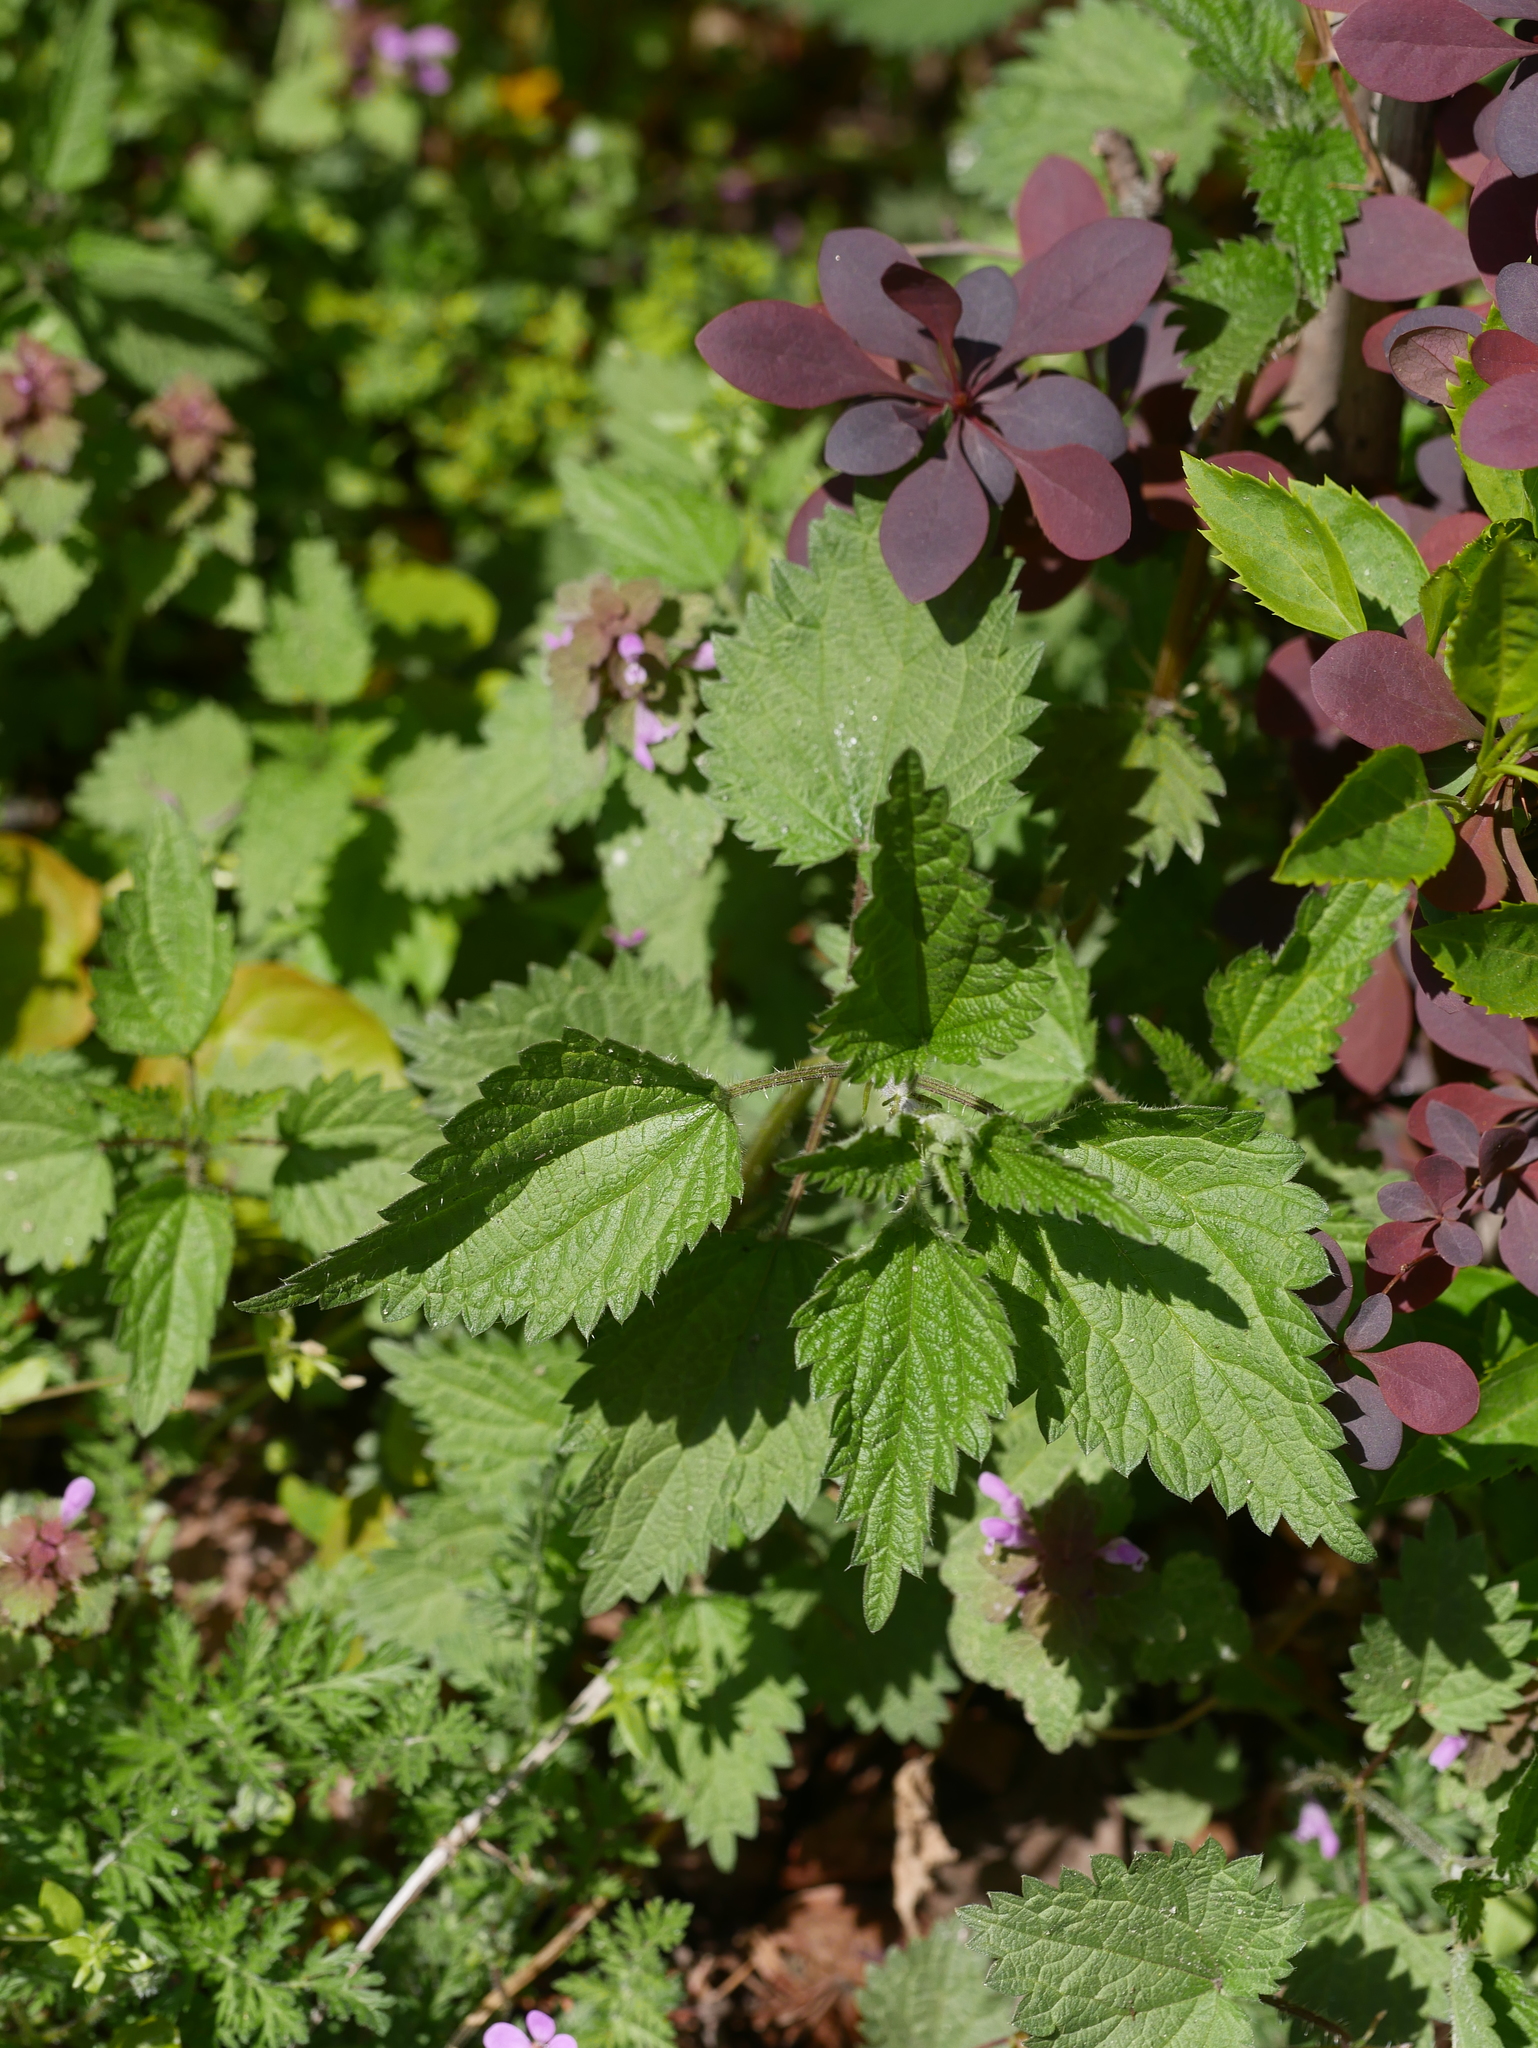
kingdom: Plantae
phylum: Tracheophyta
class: Magnoliopsida
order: Rosales
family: Urticaceae
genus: Urtica
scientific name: Urtica dioica
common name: Common nettle
